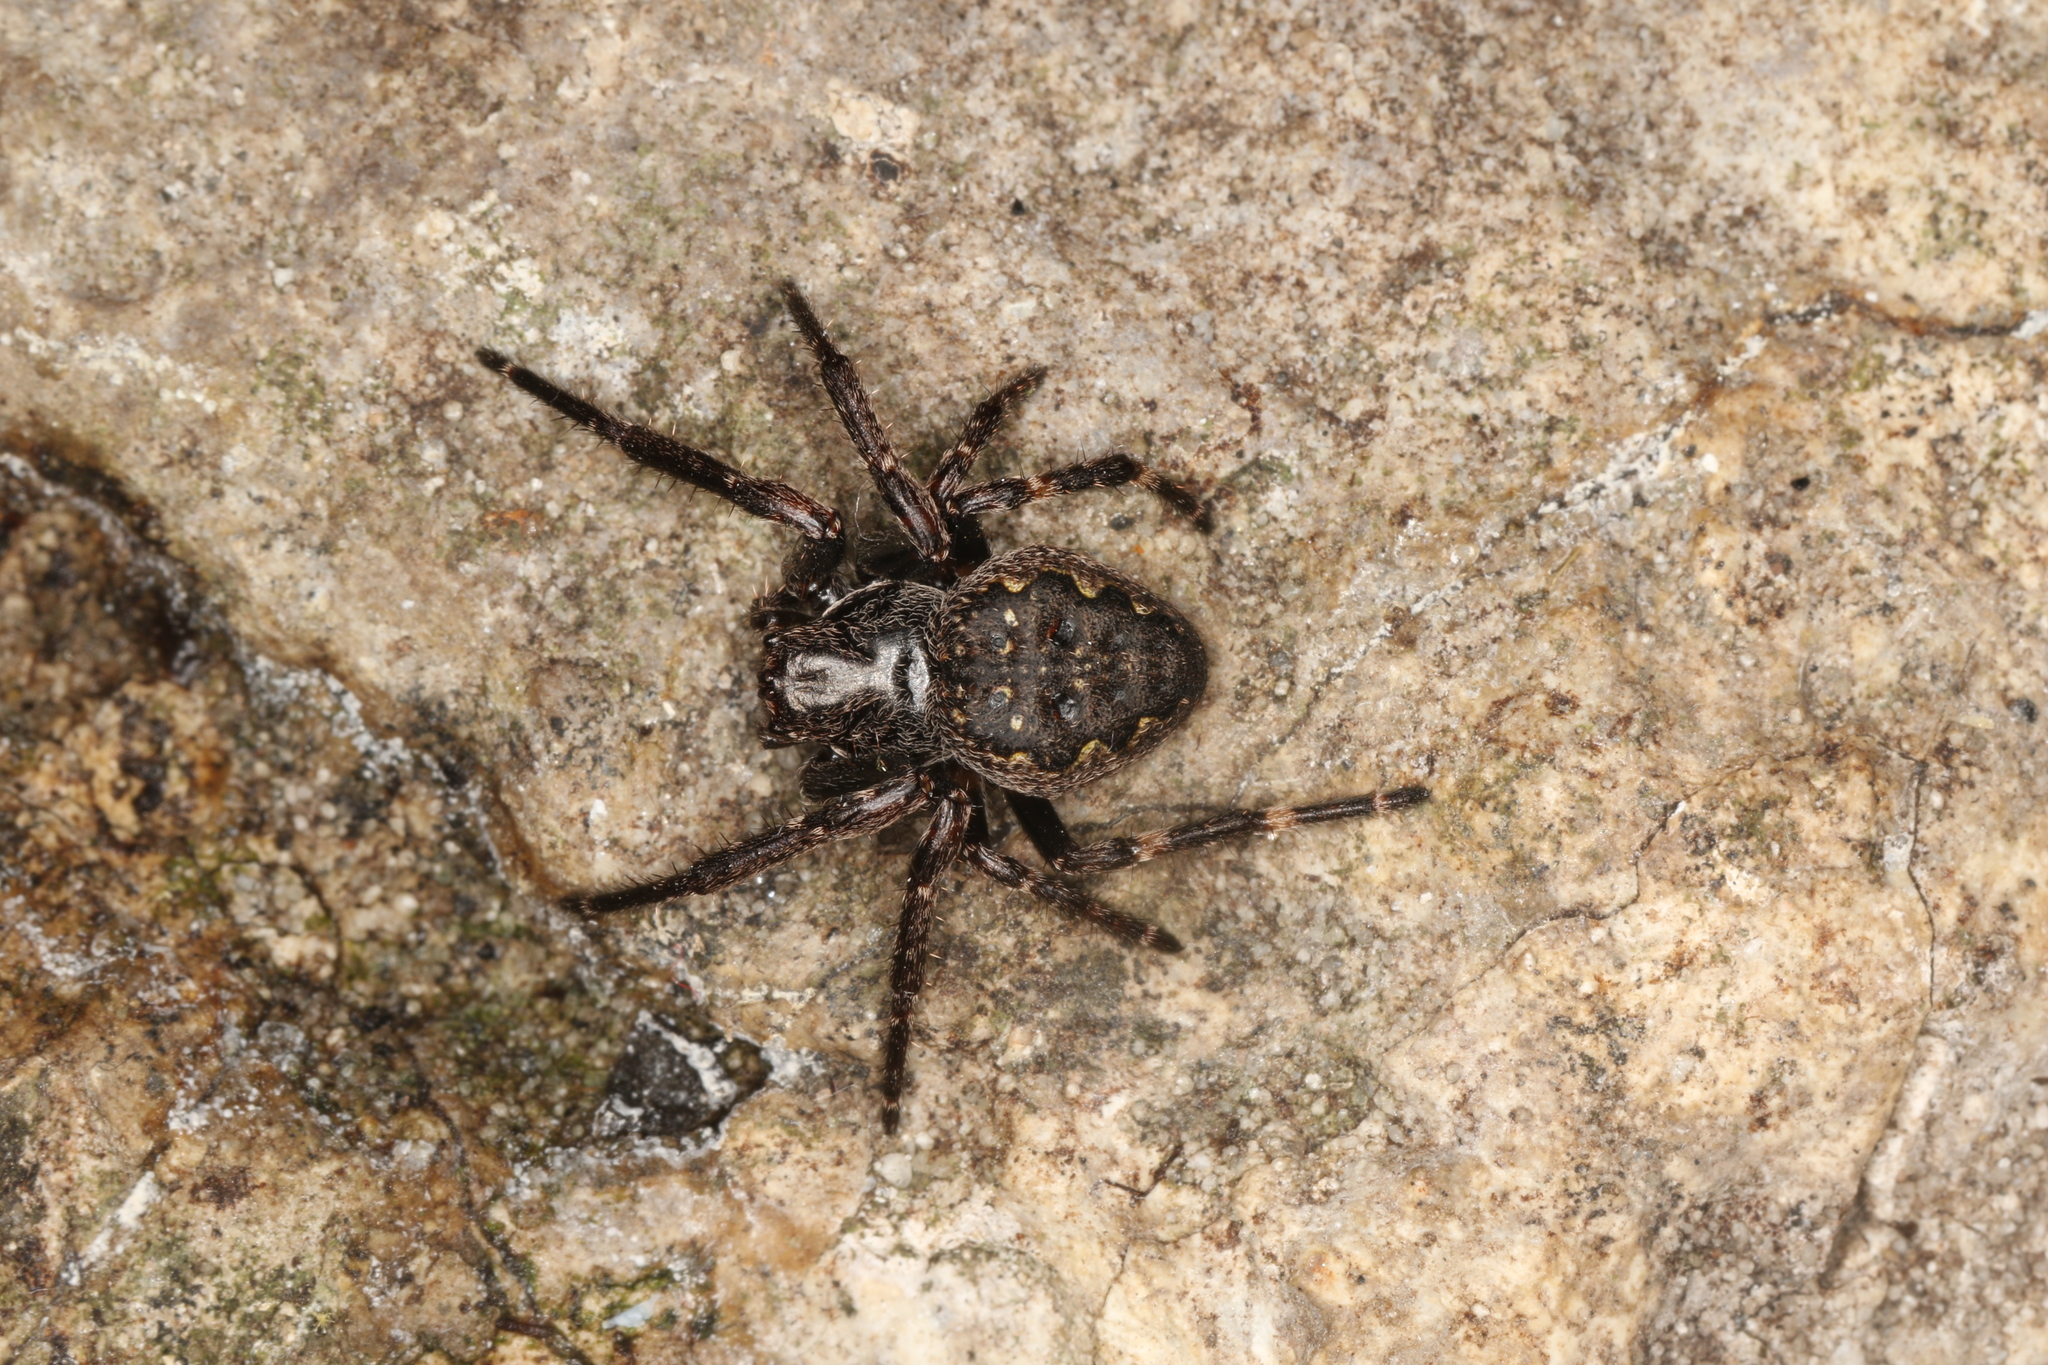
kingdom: Animalia
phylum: Arthropoda
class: Arachnida
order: Araneae
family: Araneidae
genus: Nuctenea
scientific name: Nuctenea umbratica
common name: Toad spider
